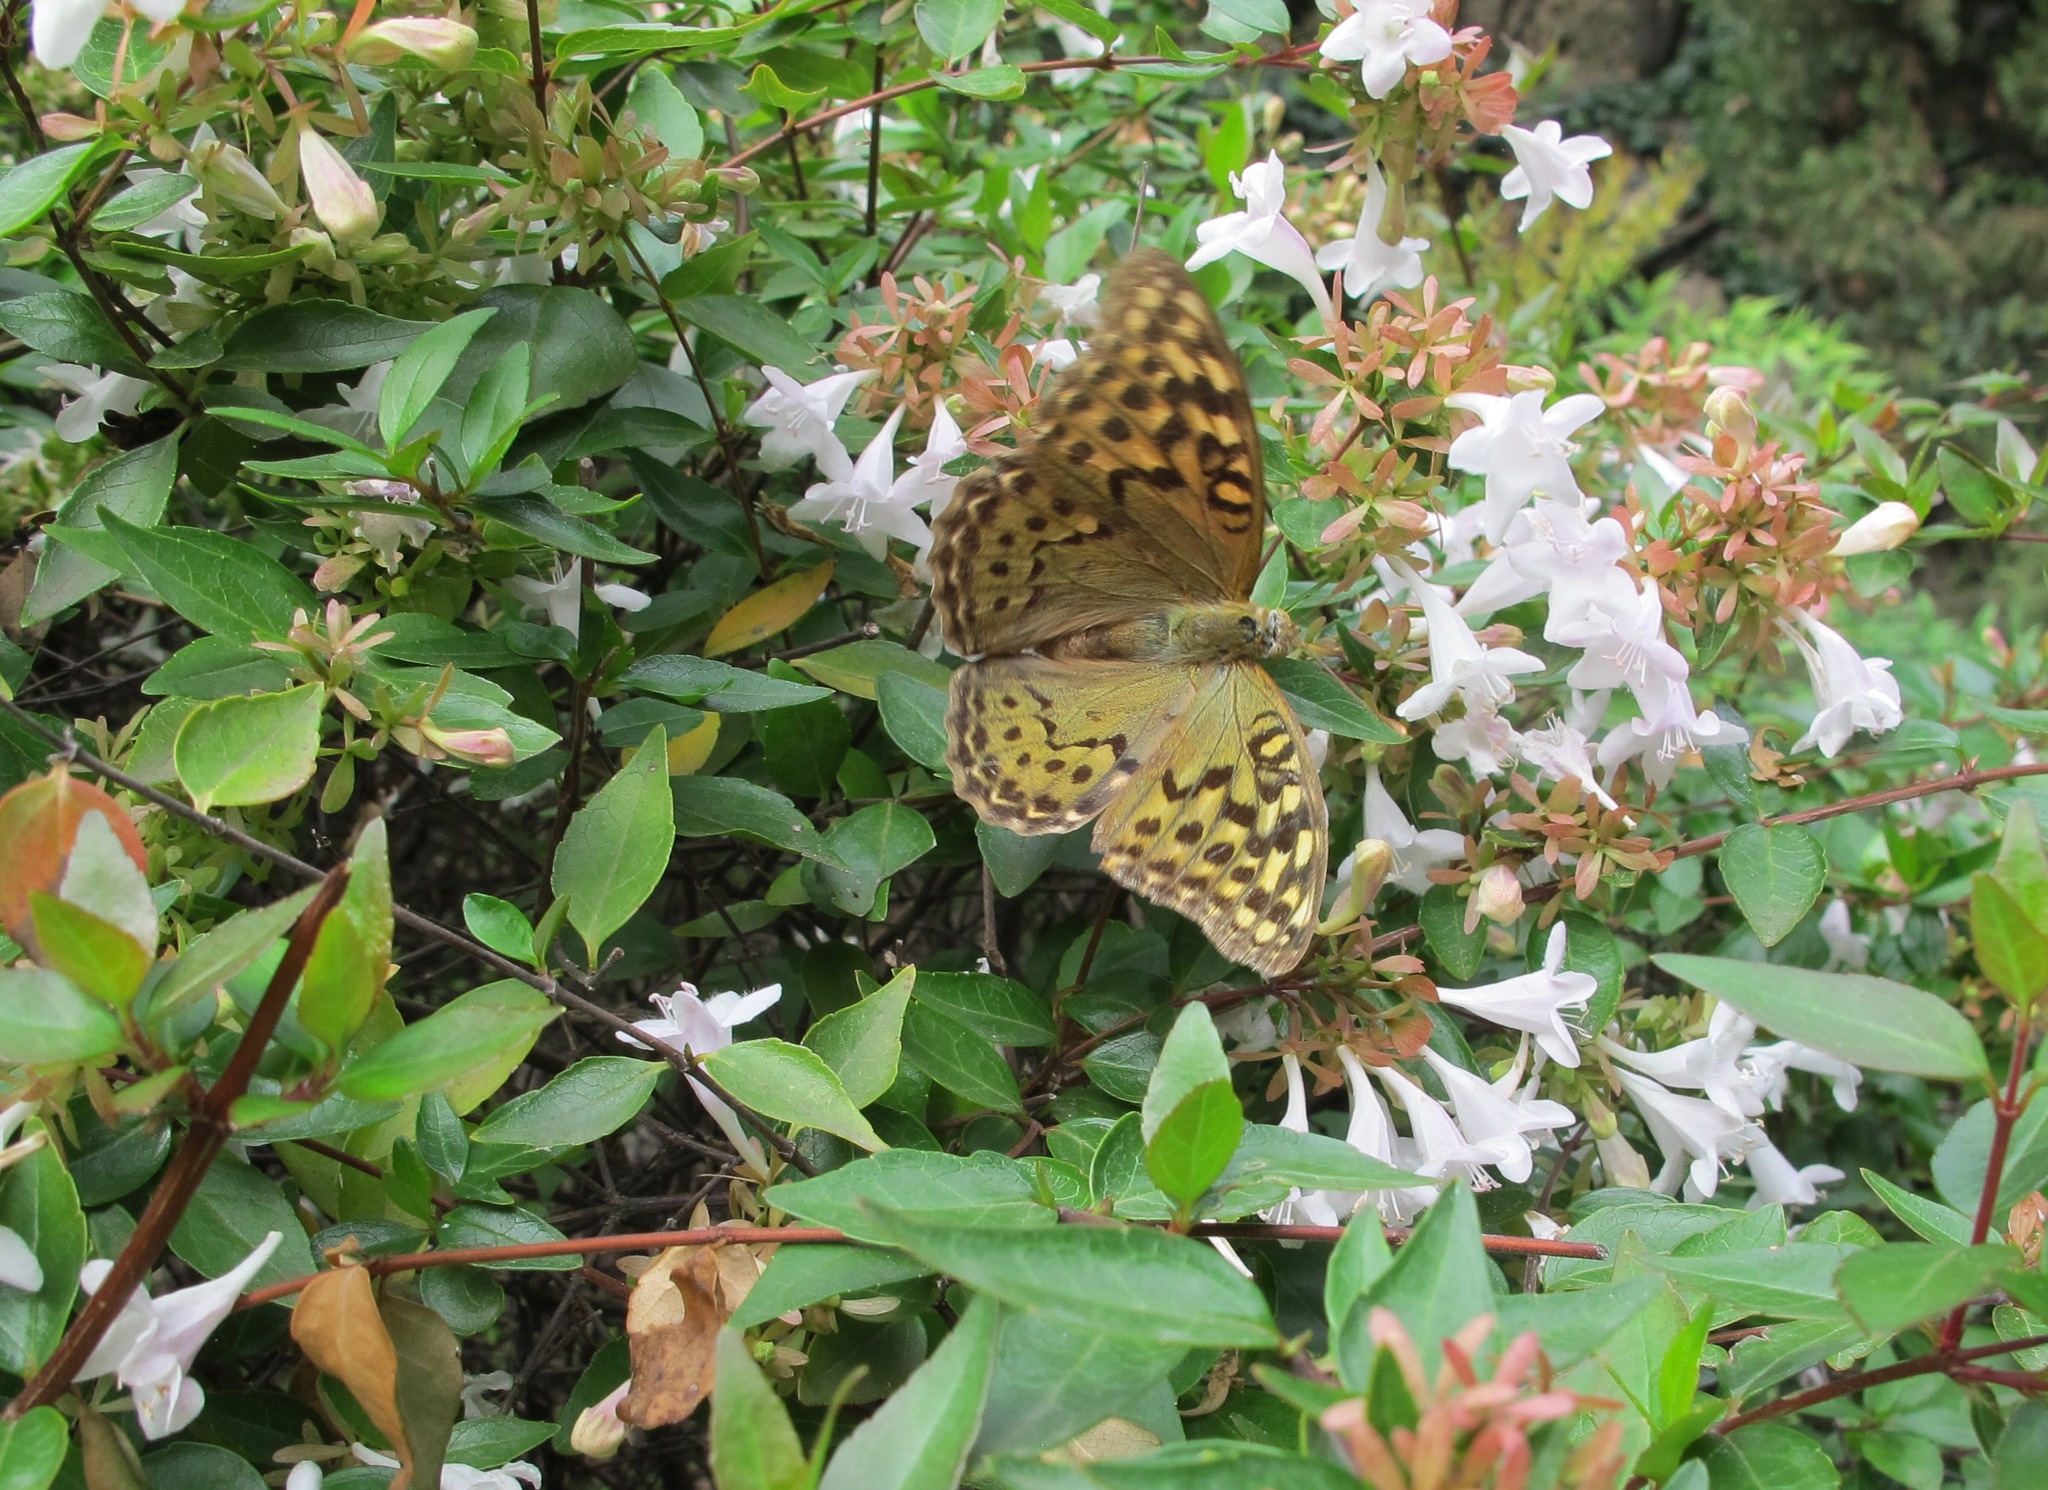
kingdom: Animalia
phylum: Arthropoda
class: Insecta
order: Lepidoptera
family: Nymphalidae
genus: Damora
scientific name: Damora pandora
